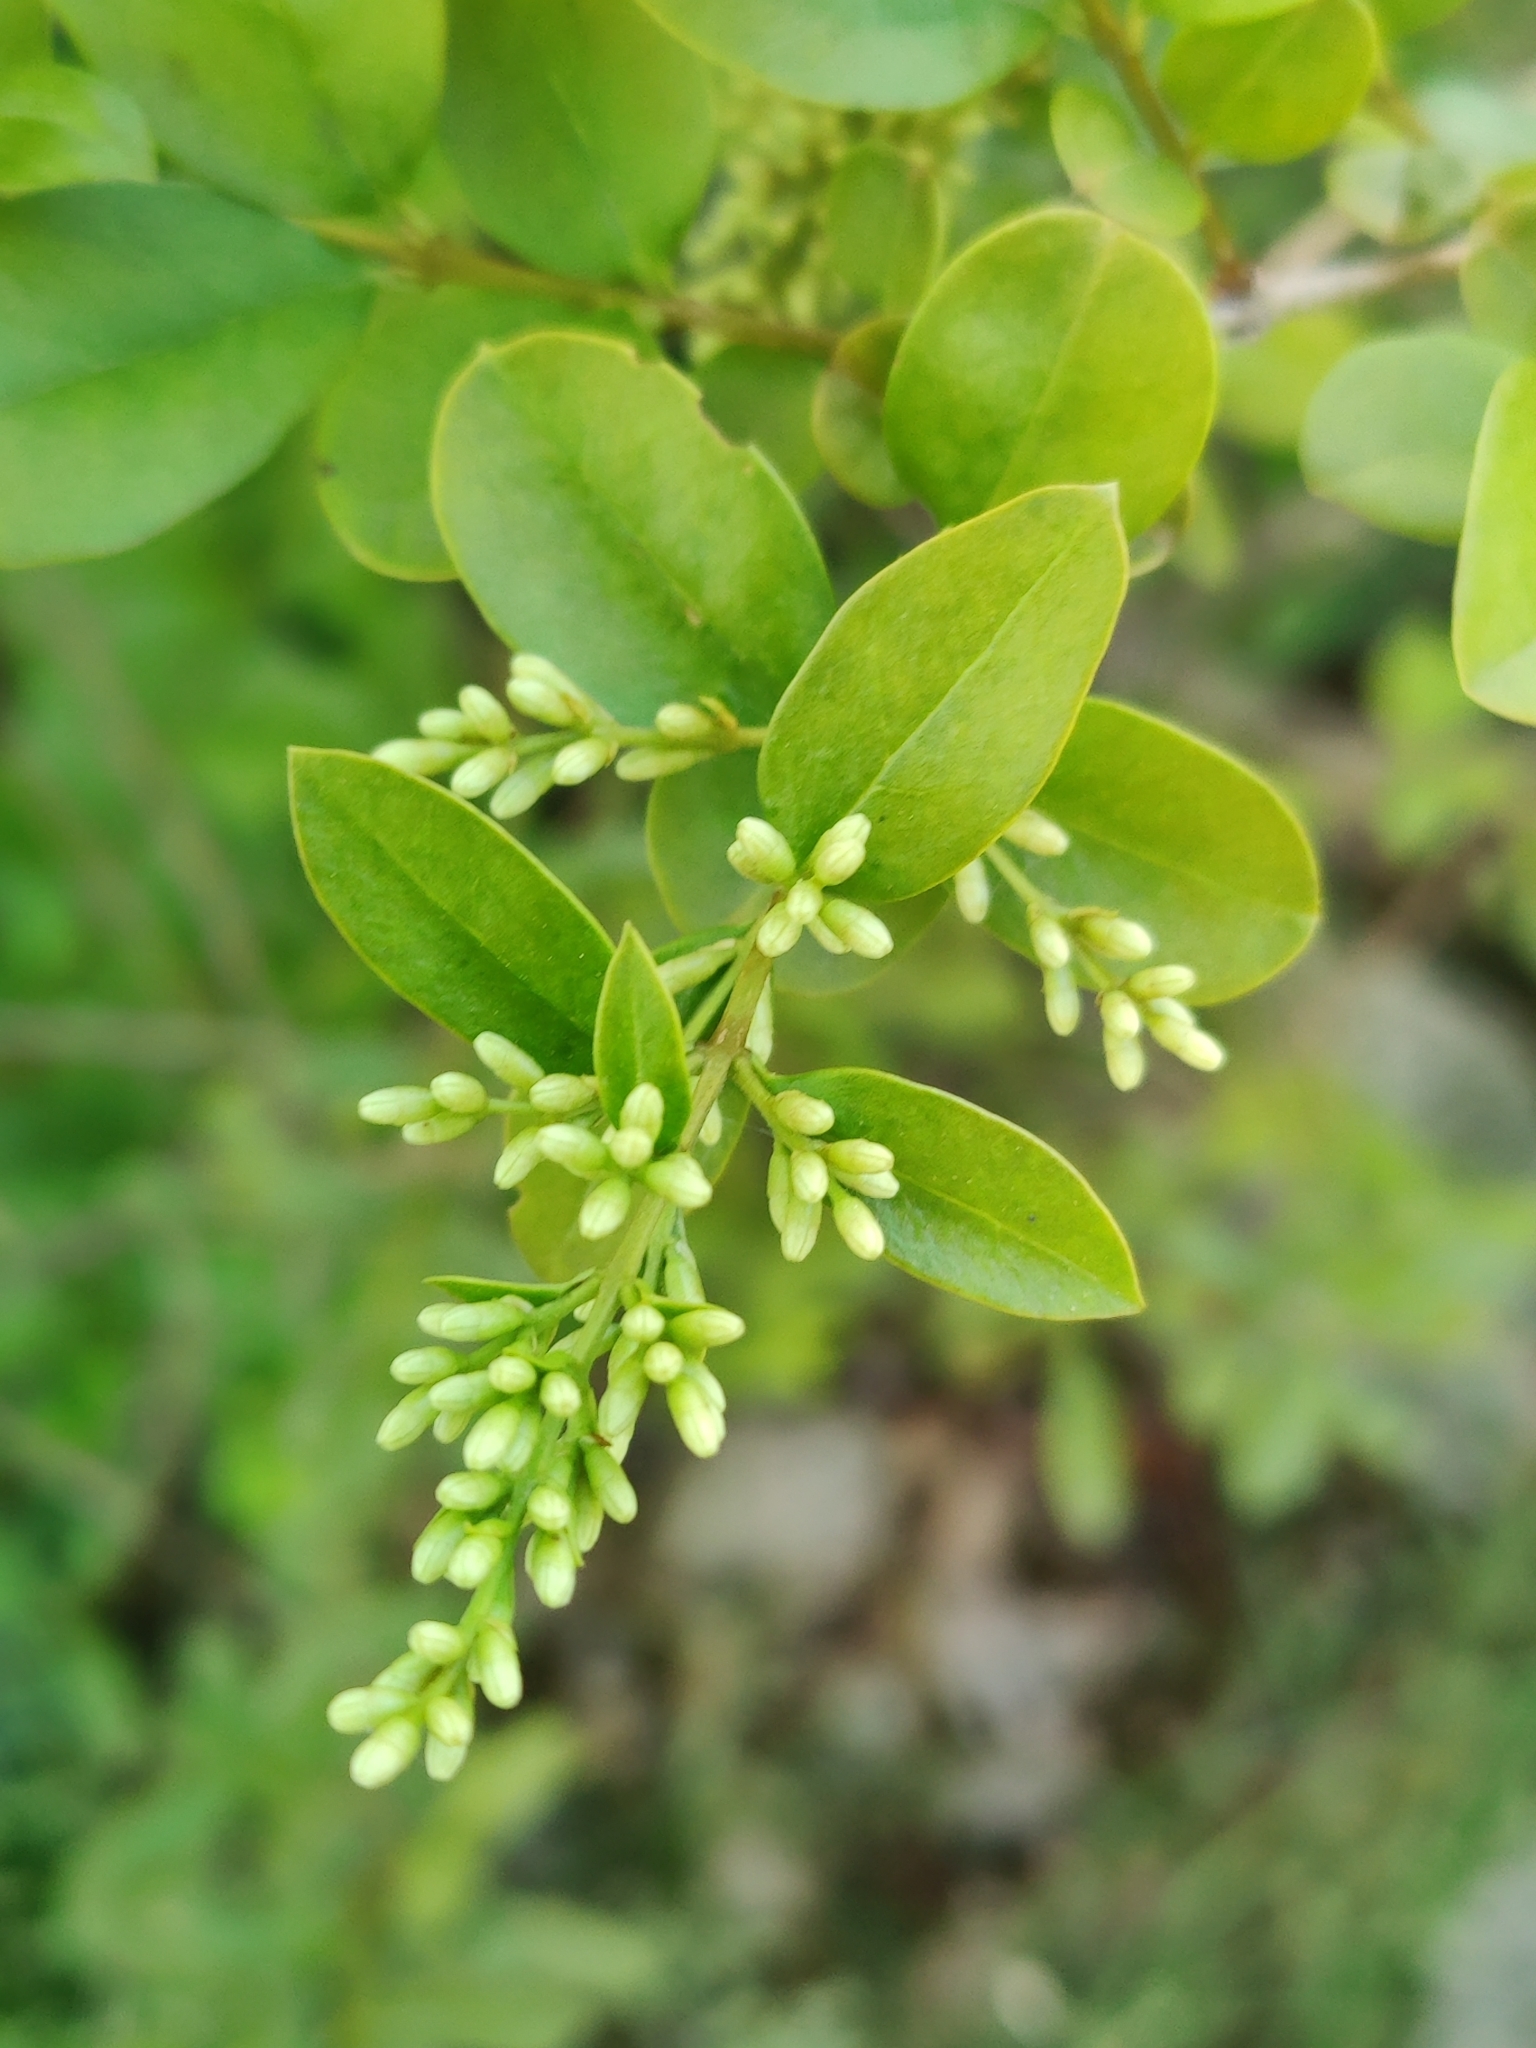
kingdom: Plantae
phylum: Tracheophyta
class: Magnoliopsida
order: Lamiales
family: Oleaceae
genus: Ligustrum
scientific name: Ligustrum obtusifolium
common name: Border privet
